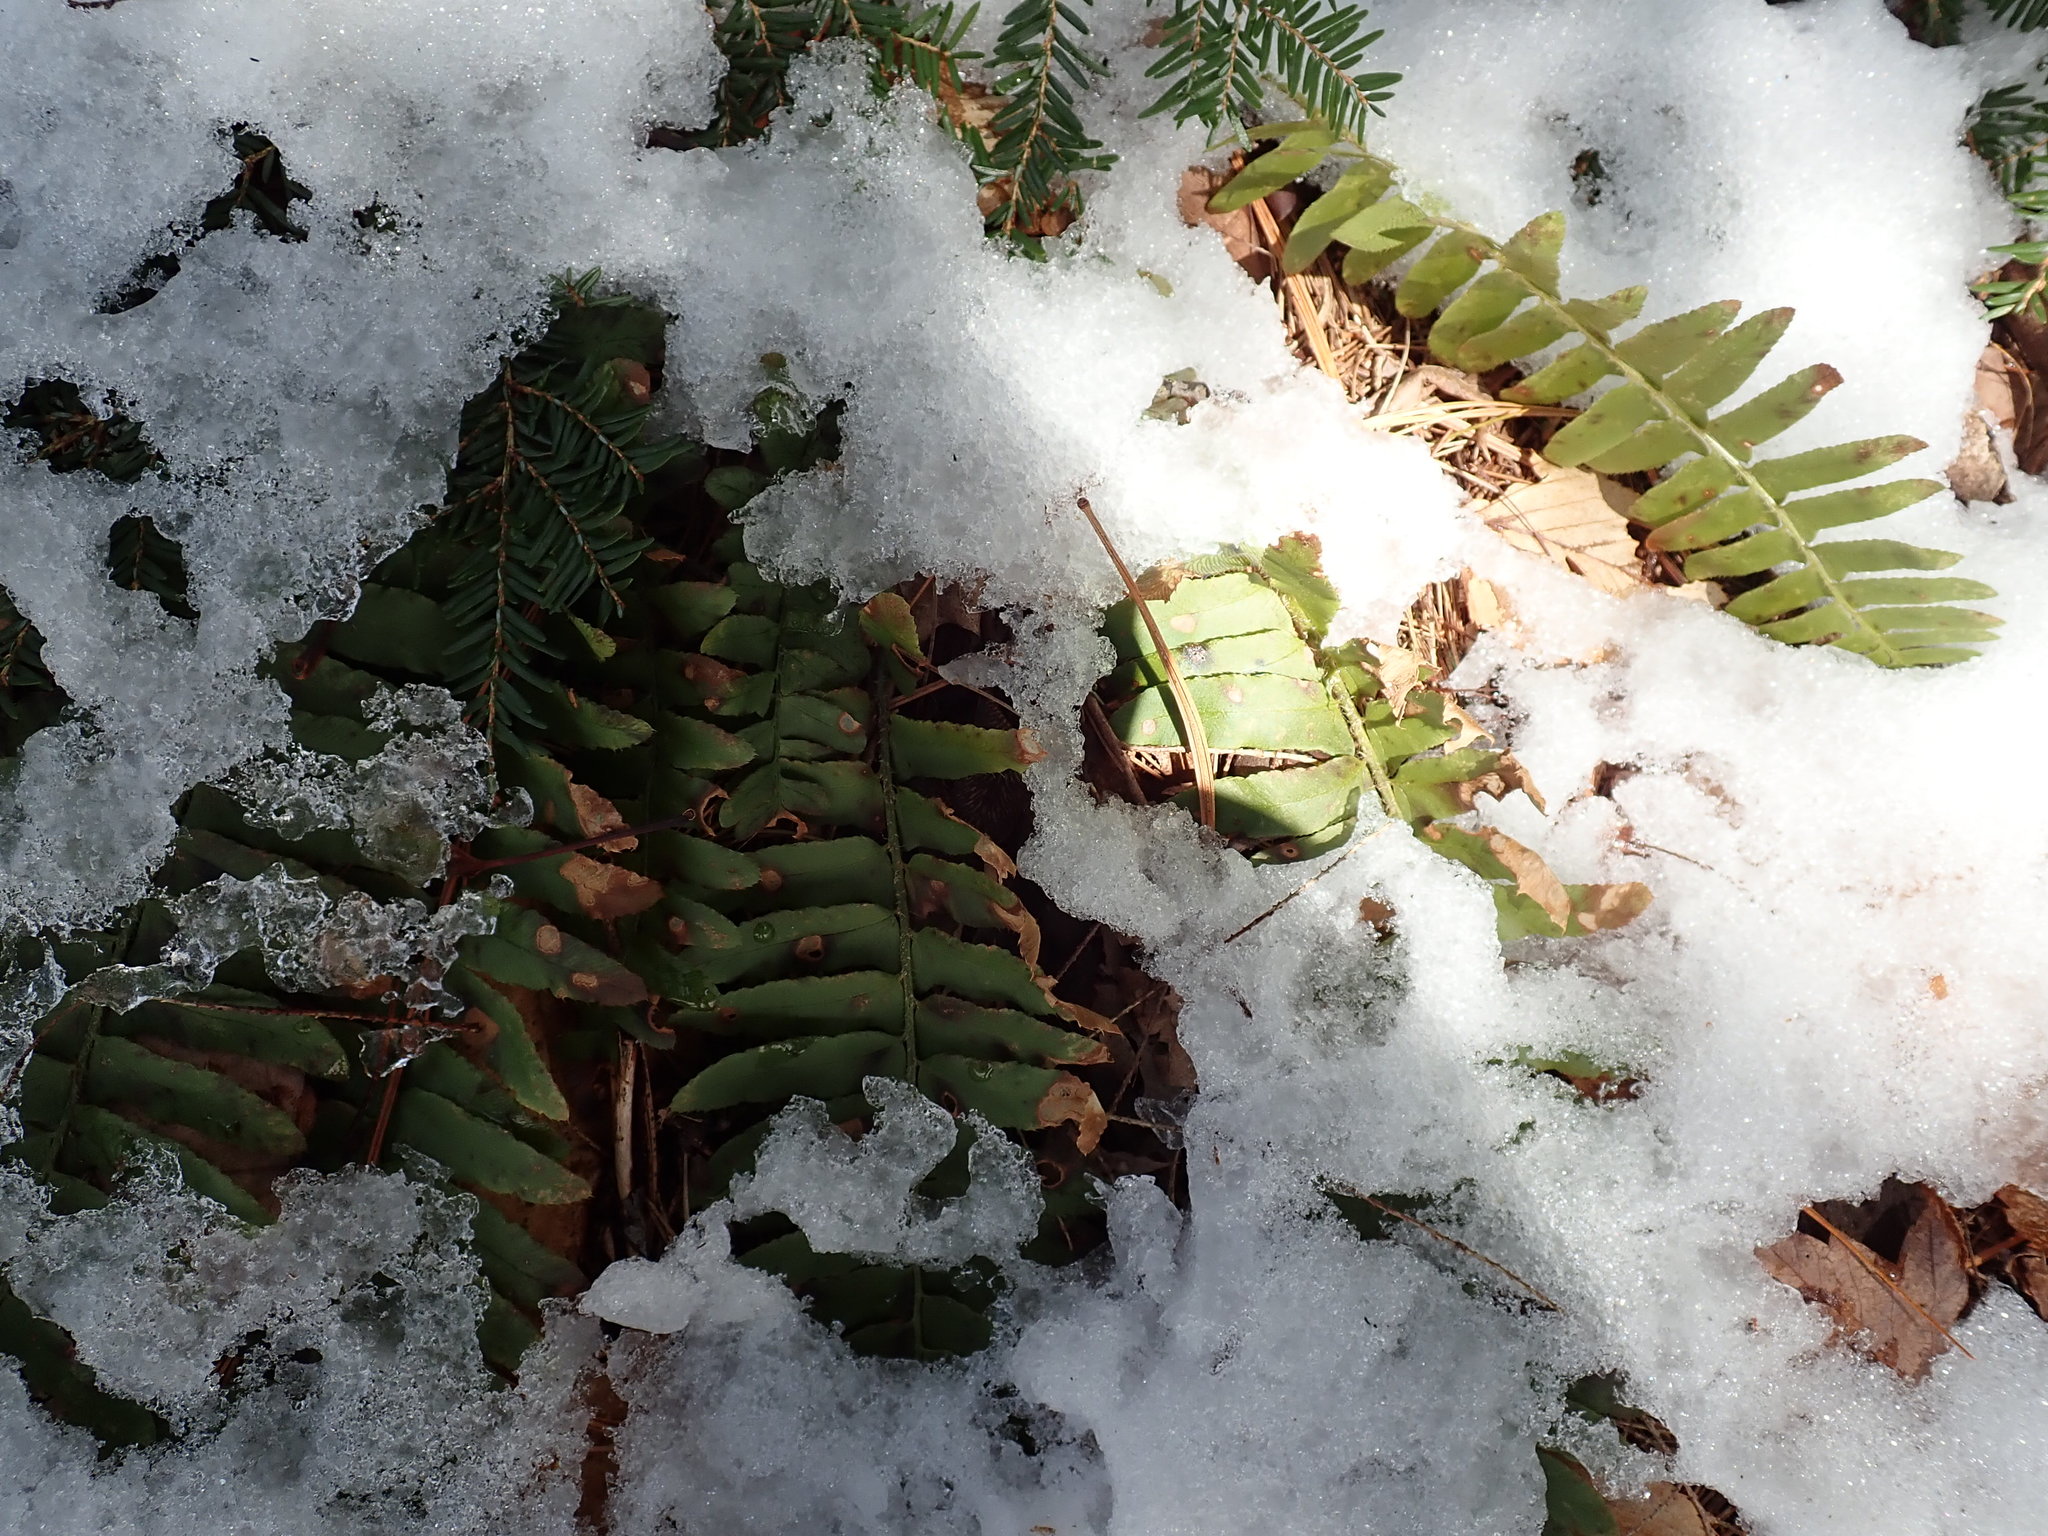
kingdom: Plantae
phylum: Tracheophyta
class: Polypodiopsida
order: Polypodiales
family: Dryopteridaceae
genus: Polystichum
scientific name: Polystichum acrostichoides
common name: Christmas fern
